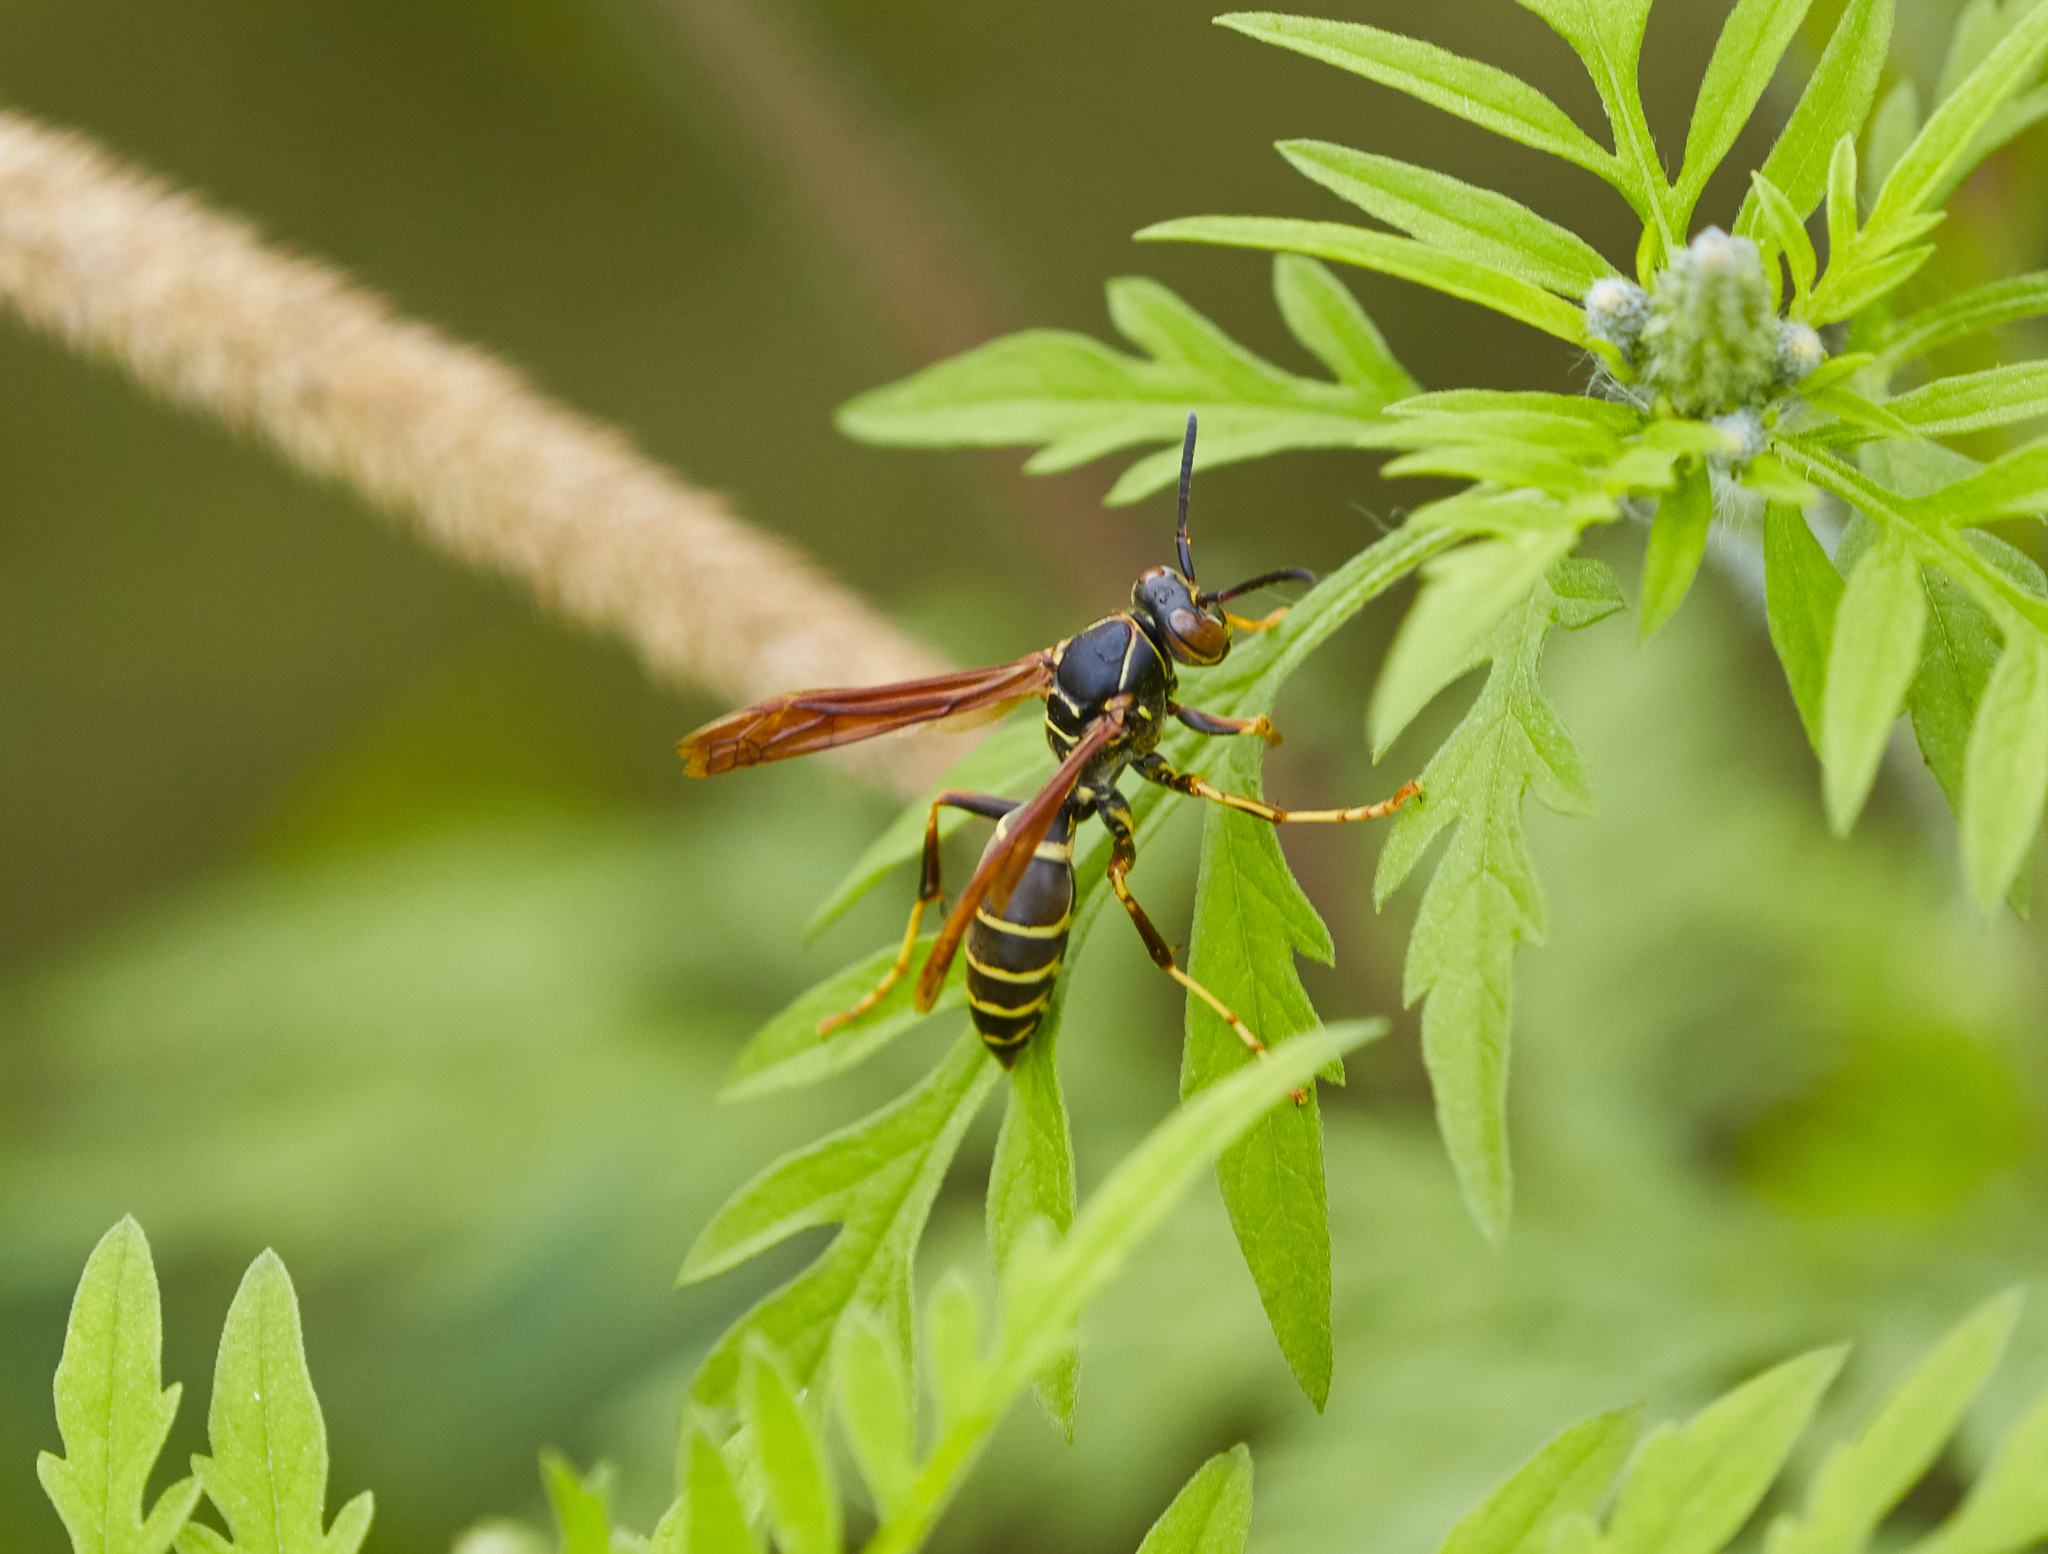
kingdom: Animalia
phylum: Arthropoda
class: Insecta
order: Hymenoptera
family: Eumenidae
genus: Polistes
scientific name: Polistes fuscatus
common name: Dark paper wasp
